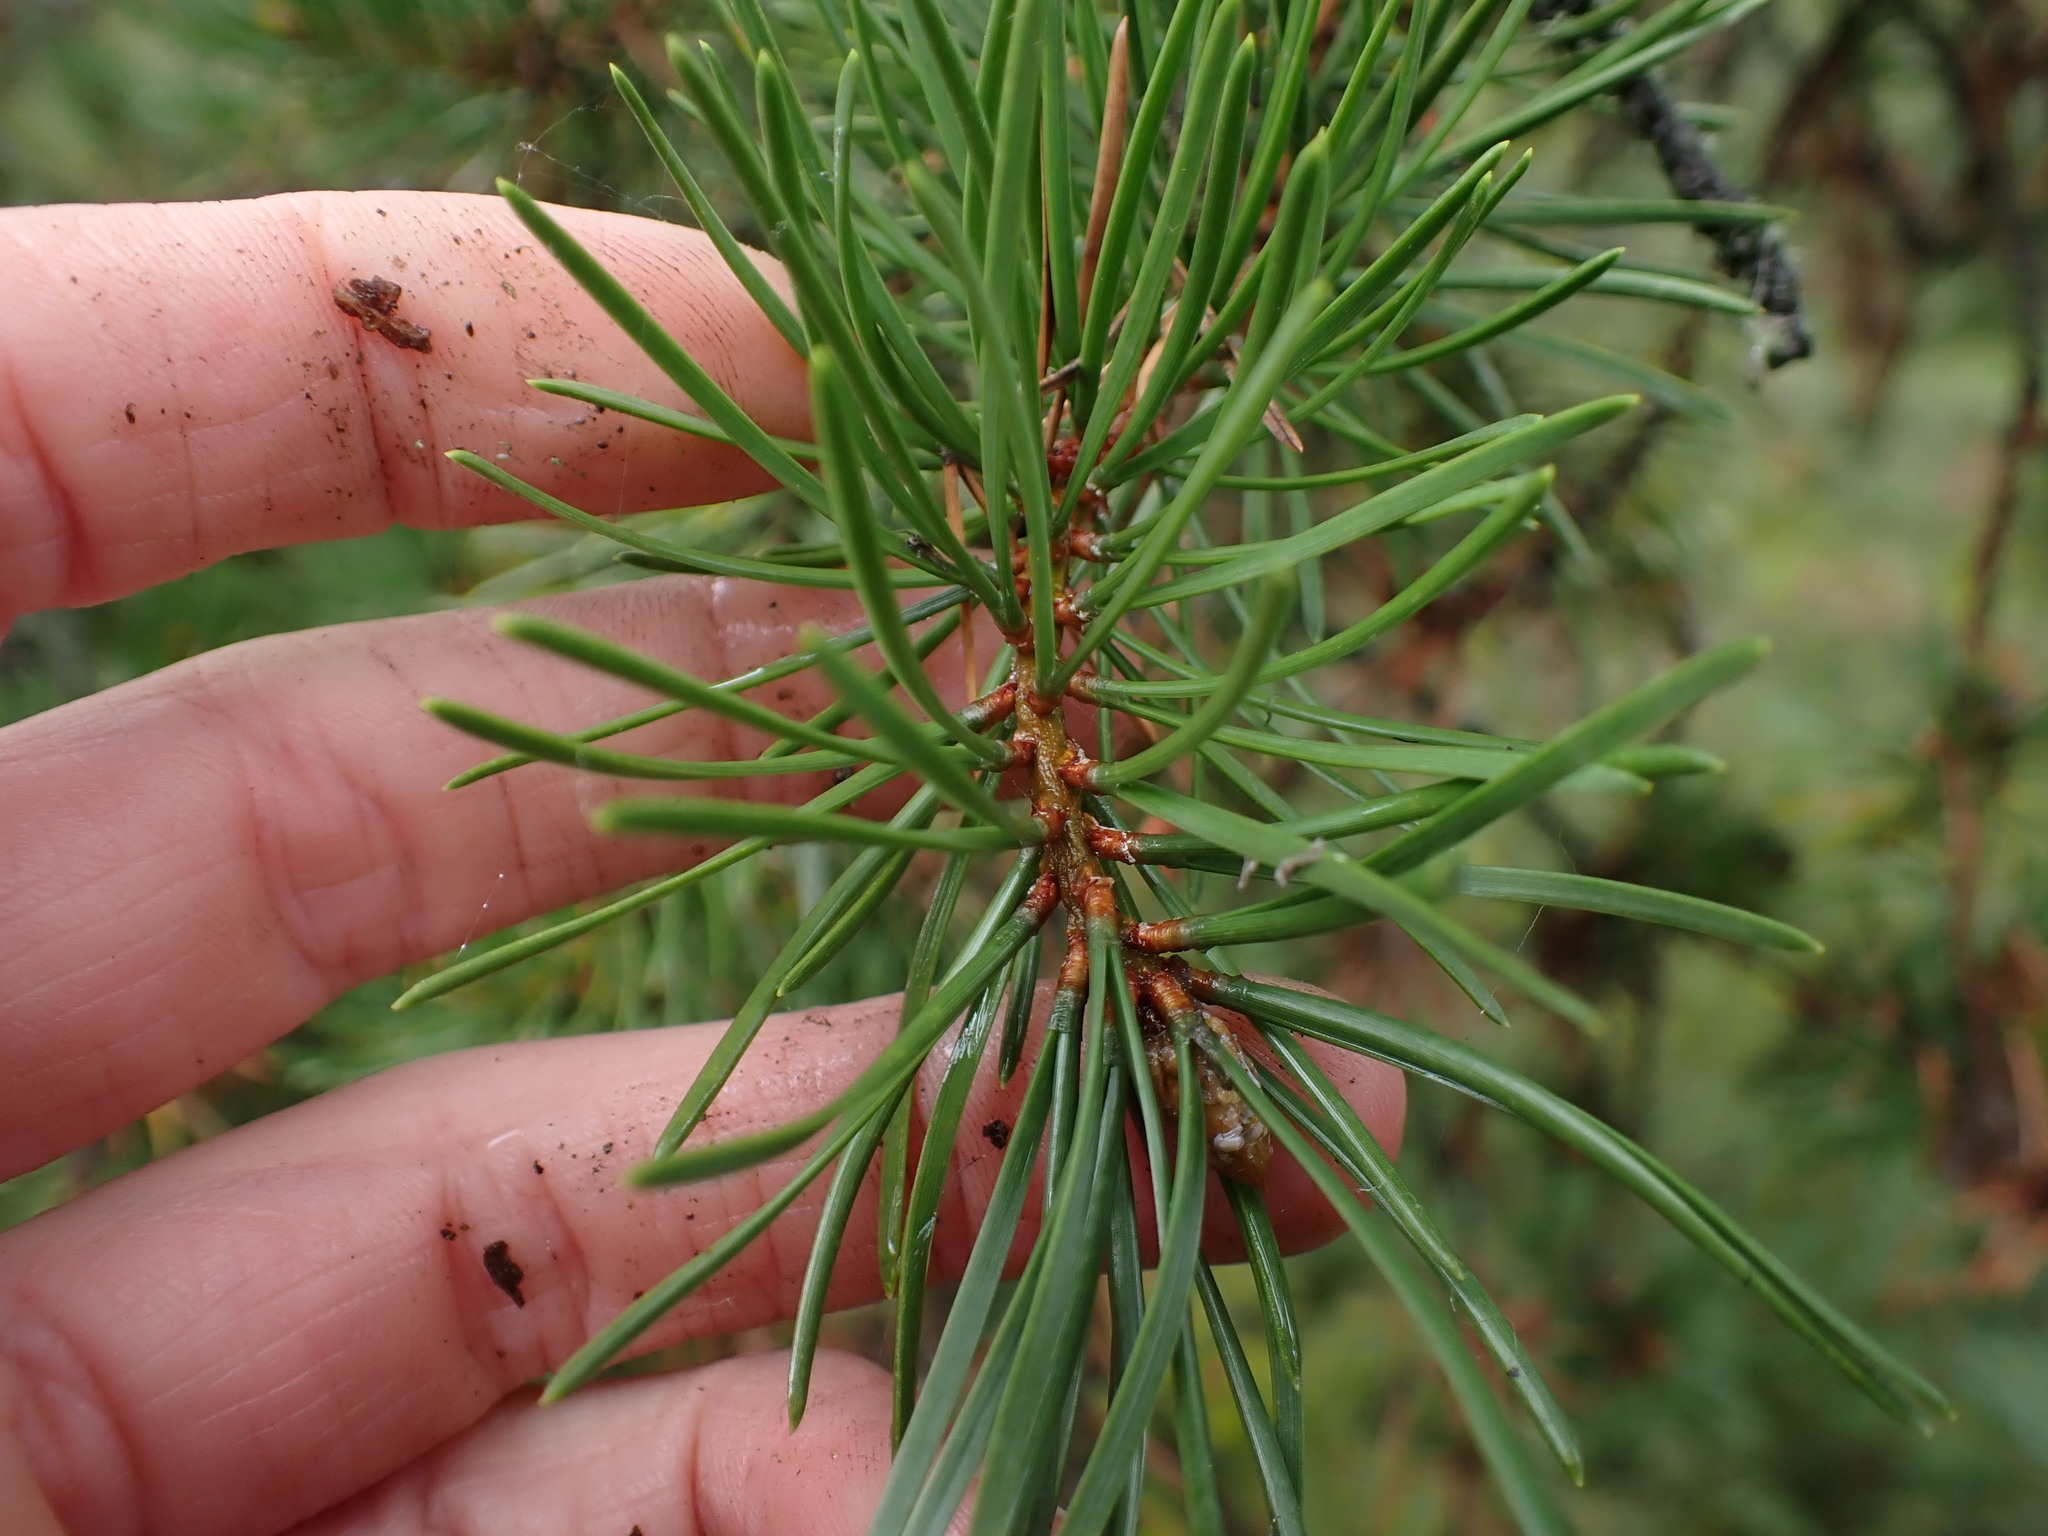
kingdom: Plantae
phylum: Tracheophyta
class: Pinopsida
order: Pinales
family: Pinaceae
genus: Pinus
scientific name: Pinus banksiana
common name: Jack pine
